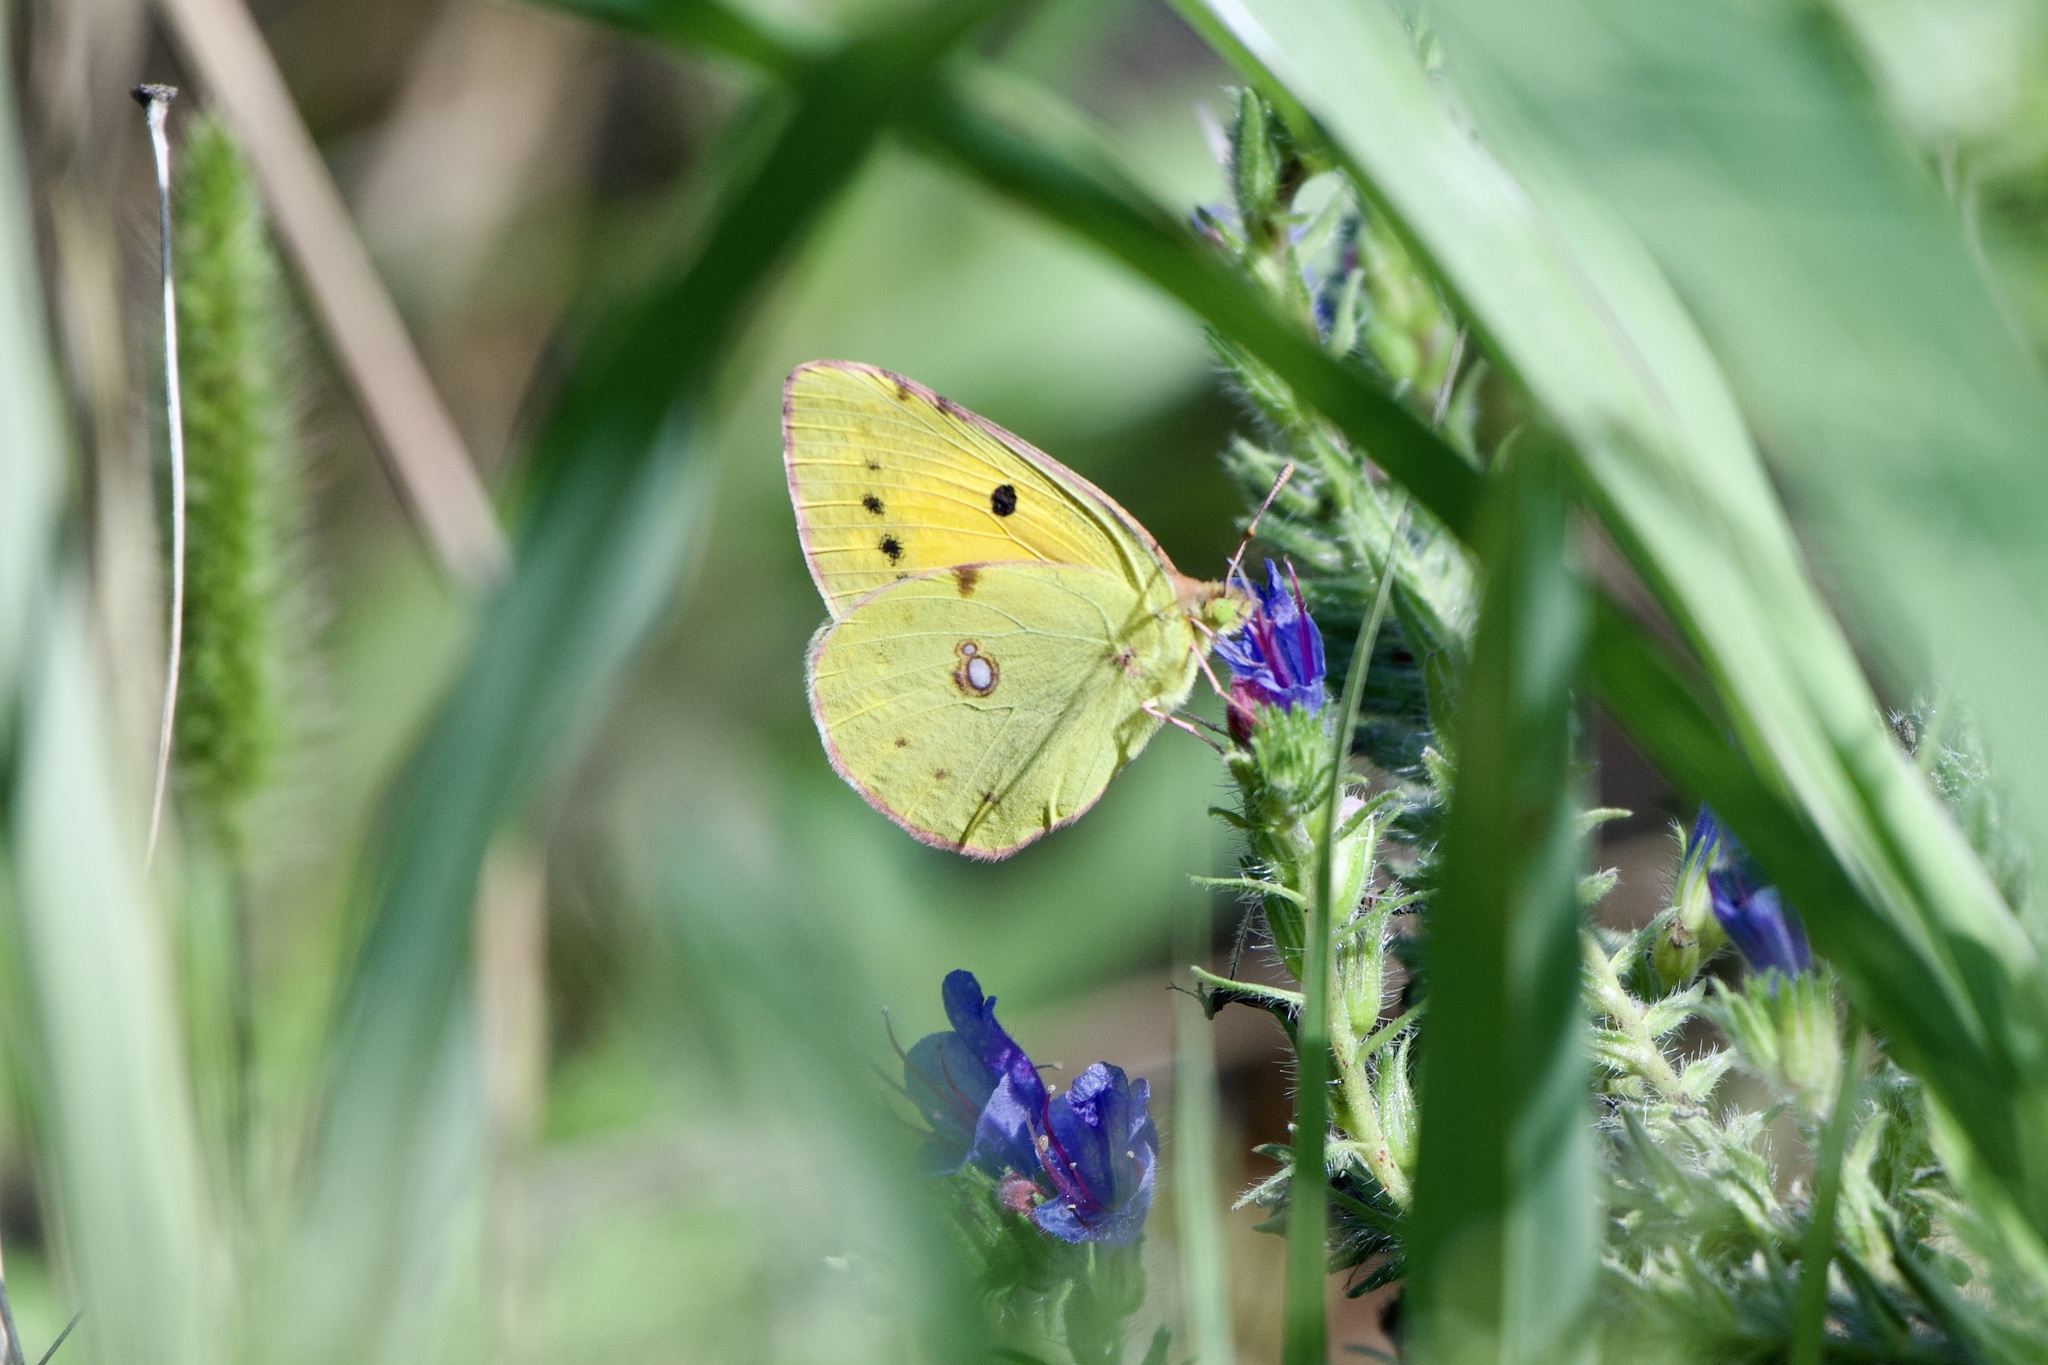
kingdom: Animalia
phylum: Arthropoda
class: Insecta
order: Lepidoptera
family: Pieridae
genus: Colias
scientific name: Colias croceus
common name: Clouded yellow
